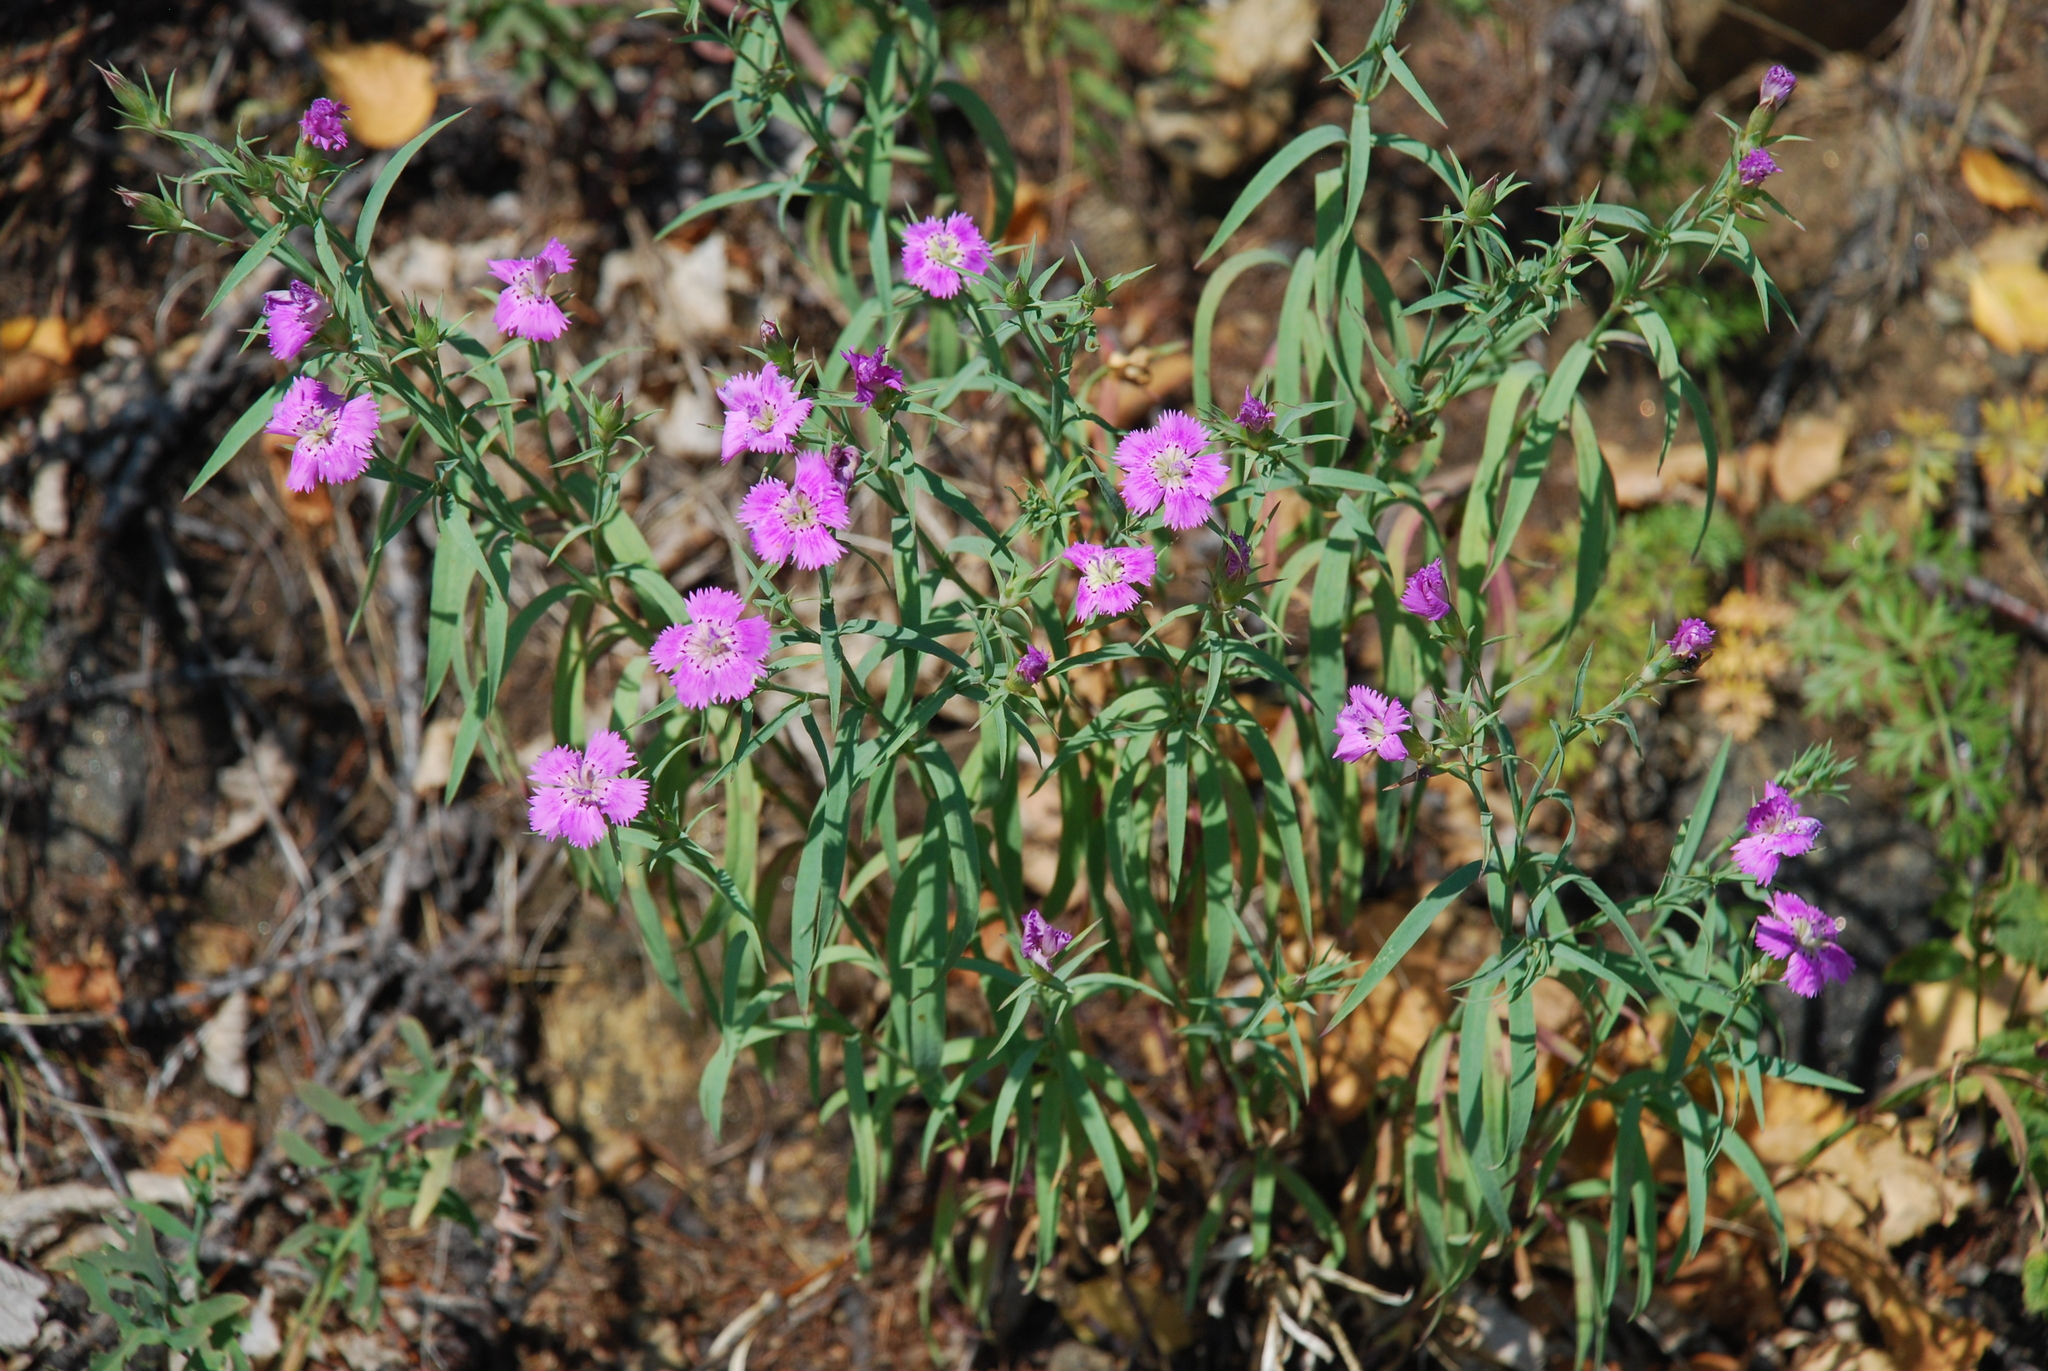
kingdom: Plantae
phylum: Tracheophyta
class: Magnoliopsida
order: Caryophyllales
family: Caryophyllaceae
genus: Dianthus
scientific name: Dianthus chinensis
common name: Rainbow pink
